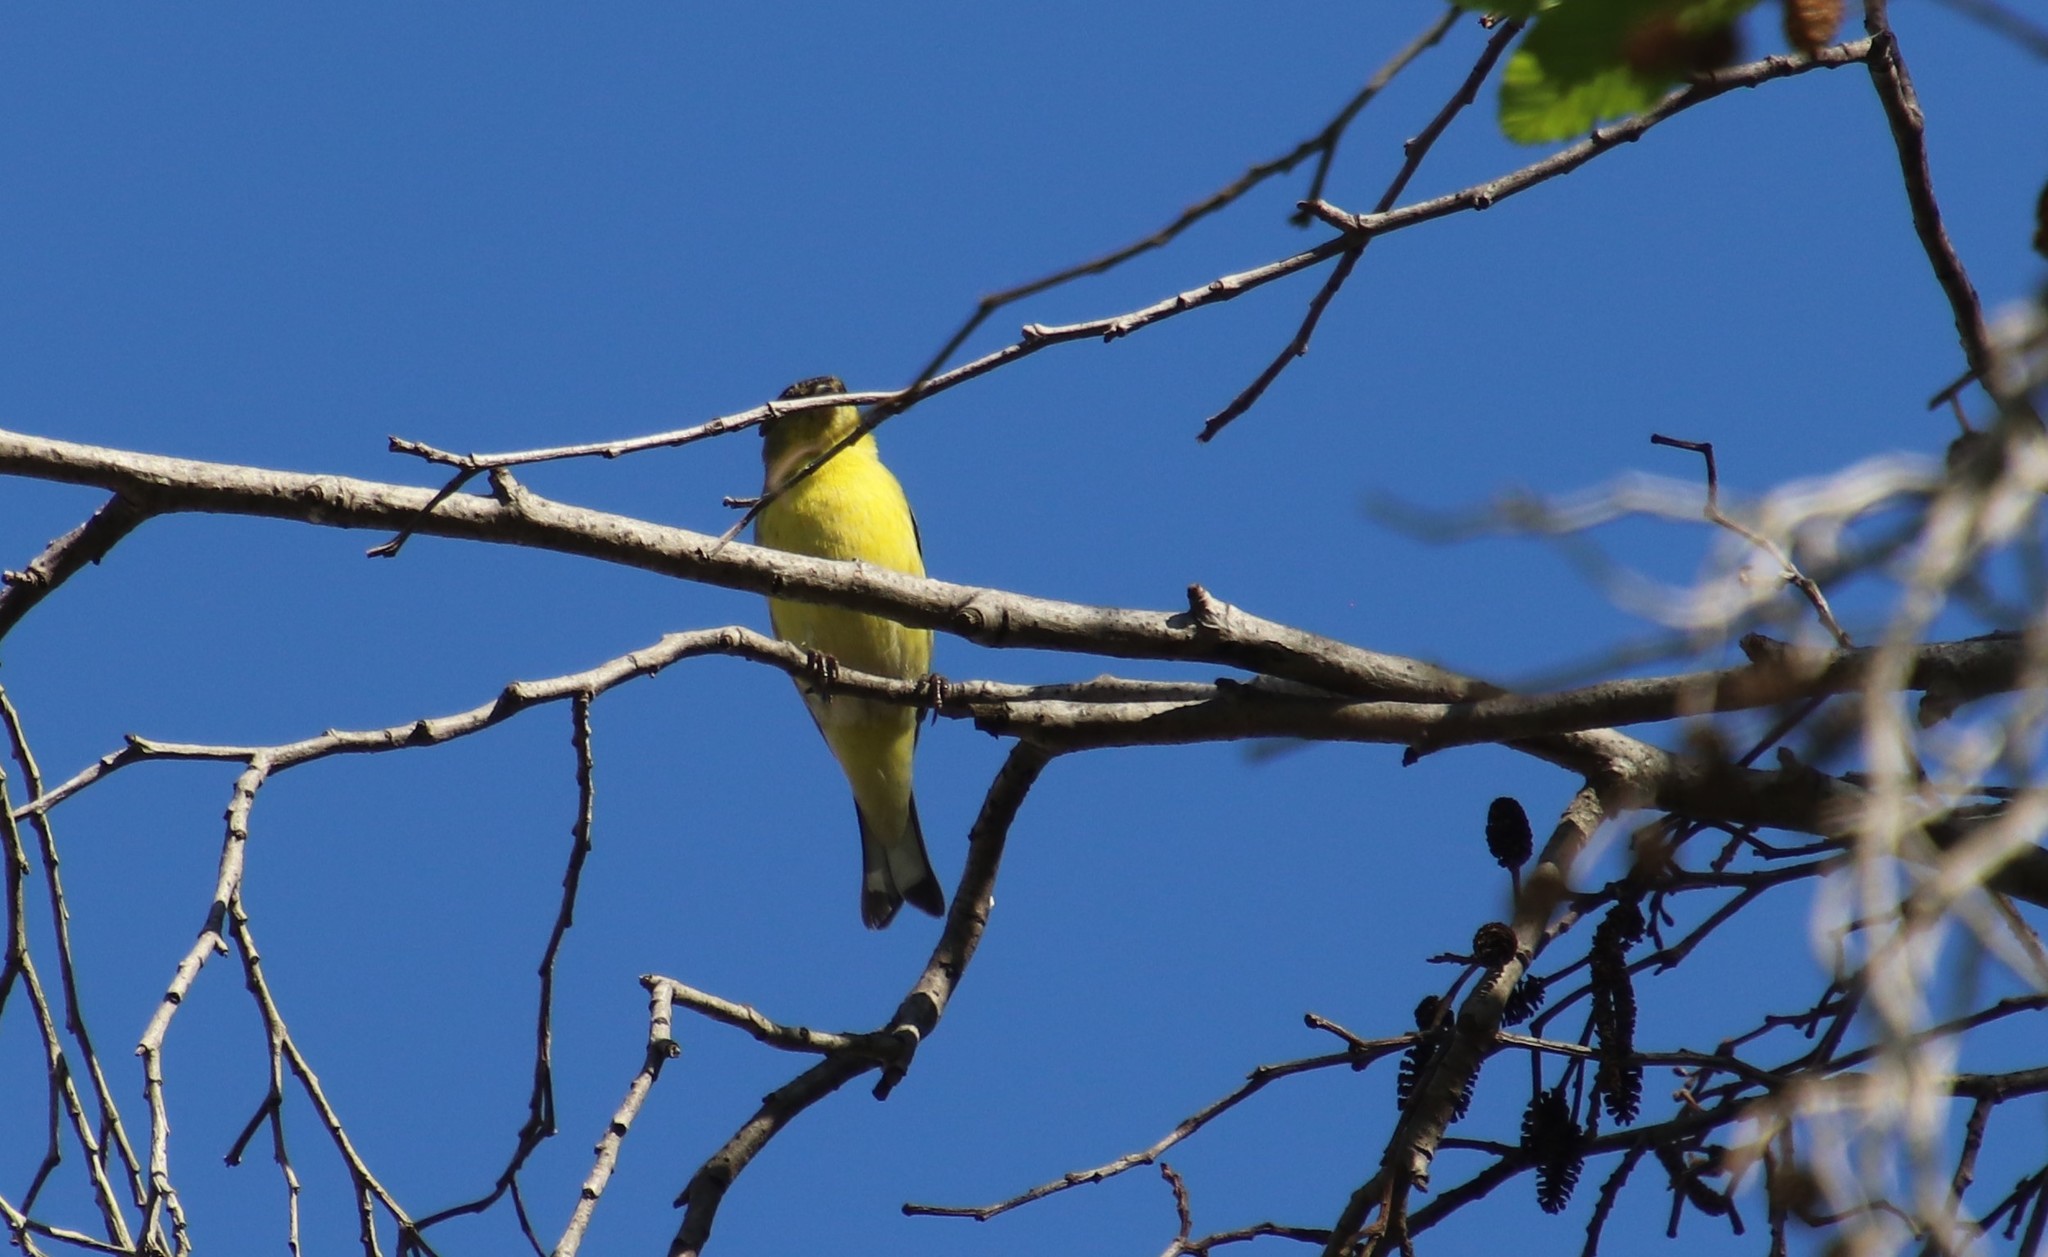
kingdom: Animalia
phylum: Chordata
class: Aves
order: Passeriformes
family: Fringillidae
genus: Spinus
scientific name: Spinus psaltria
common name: Lesser goldfinch
